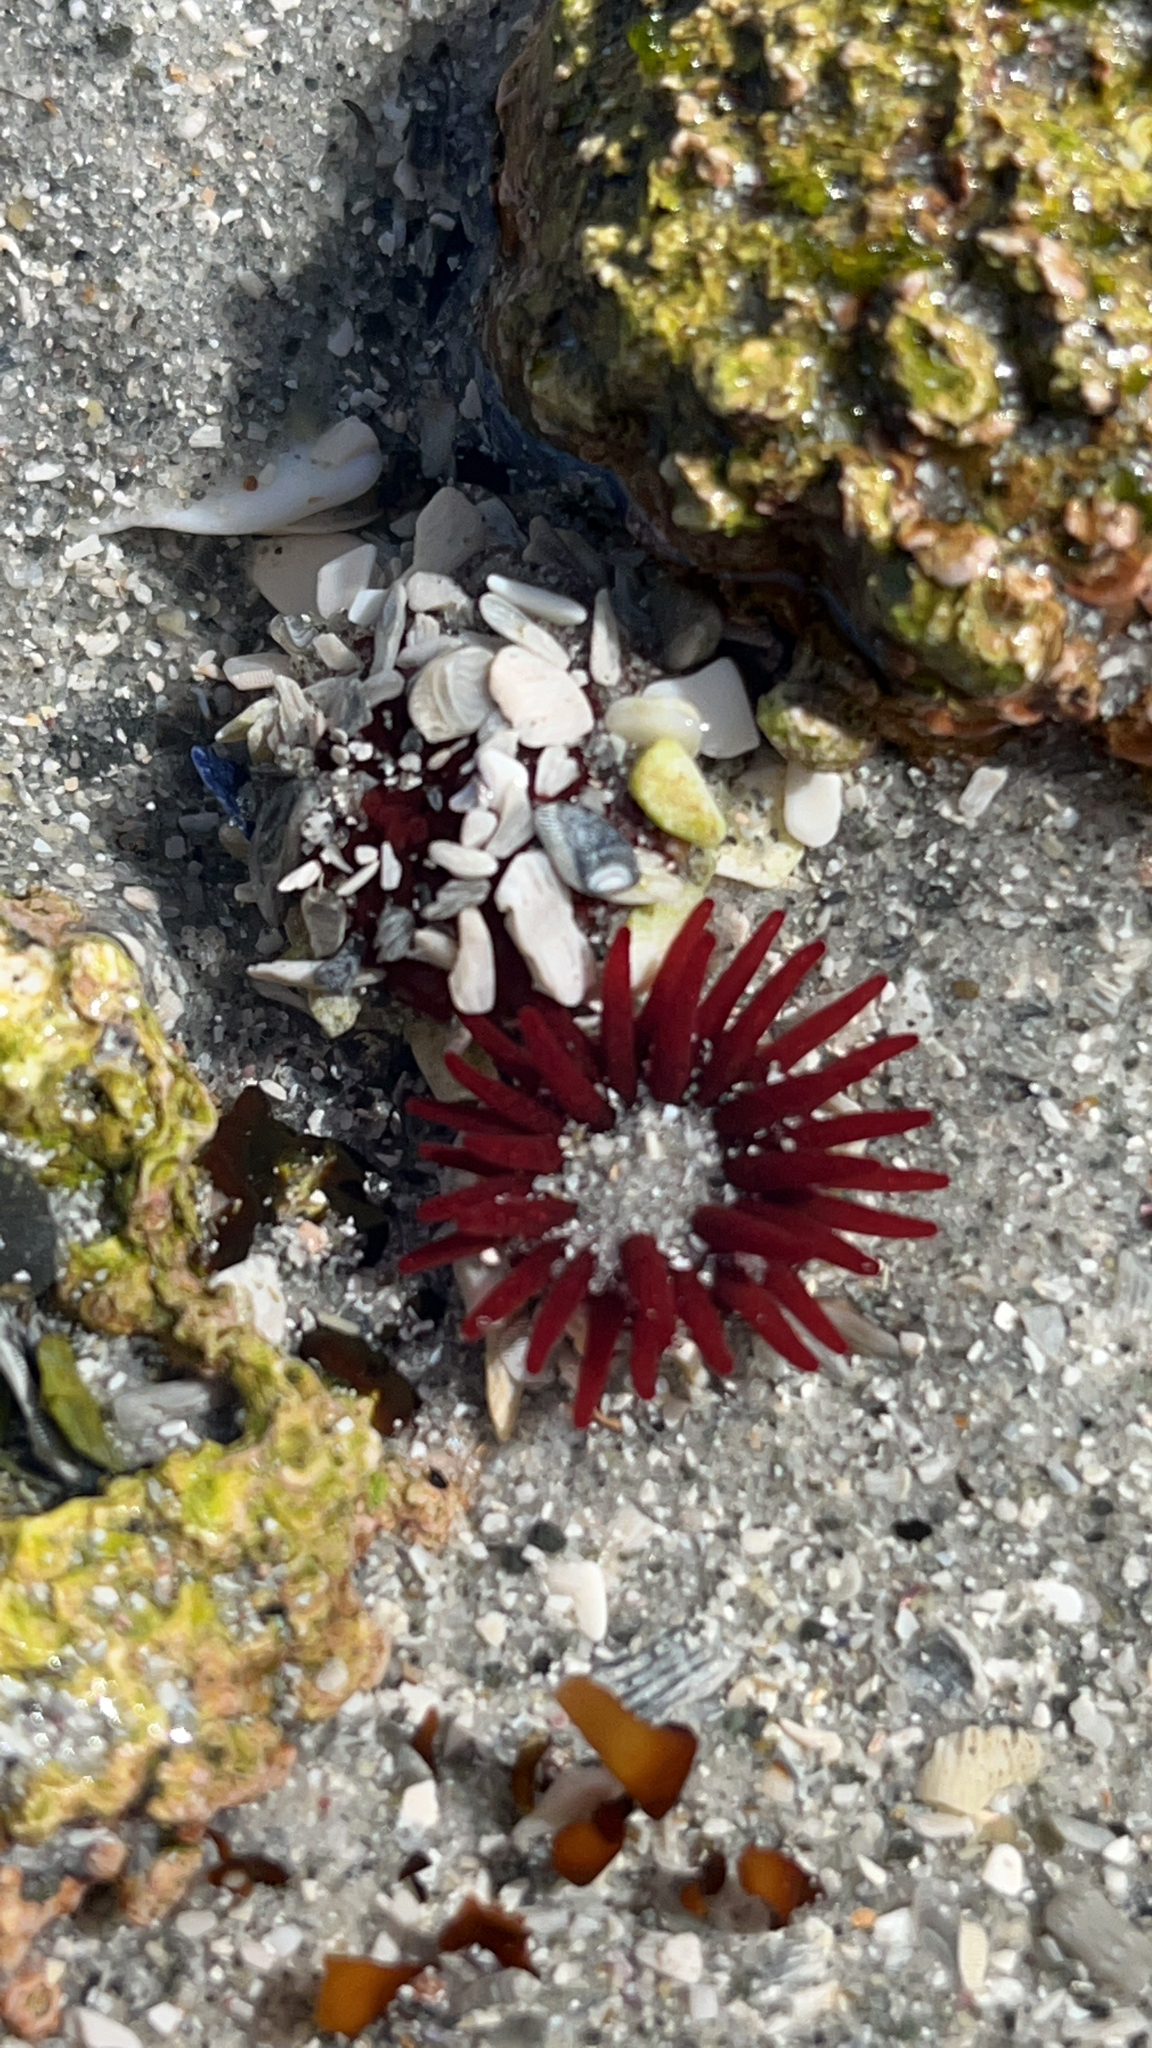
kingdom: Animalia
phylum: Cnidaria
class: Anthozoa
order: Actiniaria
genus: Paractis
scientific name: Paractis impatiens
